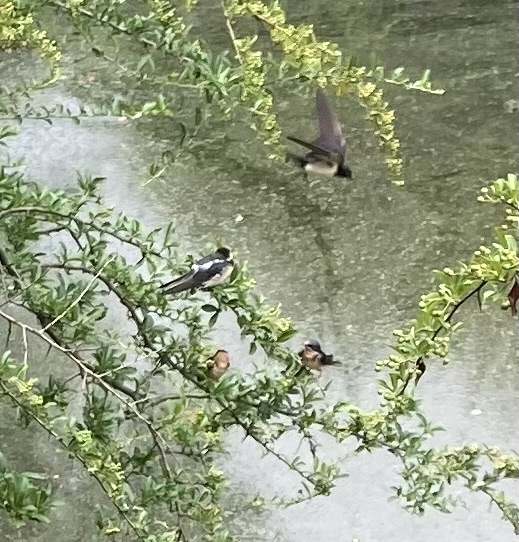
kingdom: Animalia
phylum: Chordata
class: Aves
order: Passeriformes
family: Hirundinidae
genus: Hirundo
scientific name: Hirundo rustica
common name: Barn swallow
